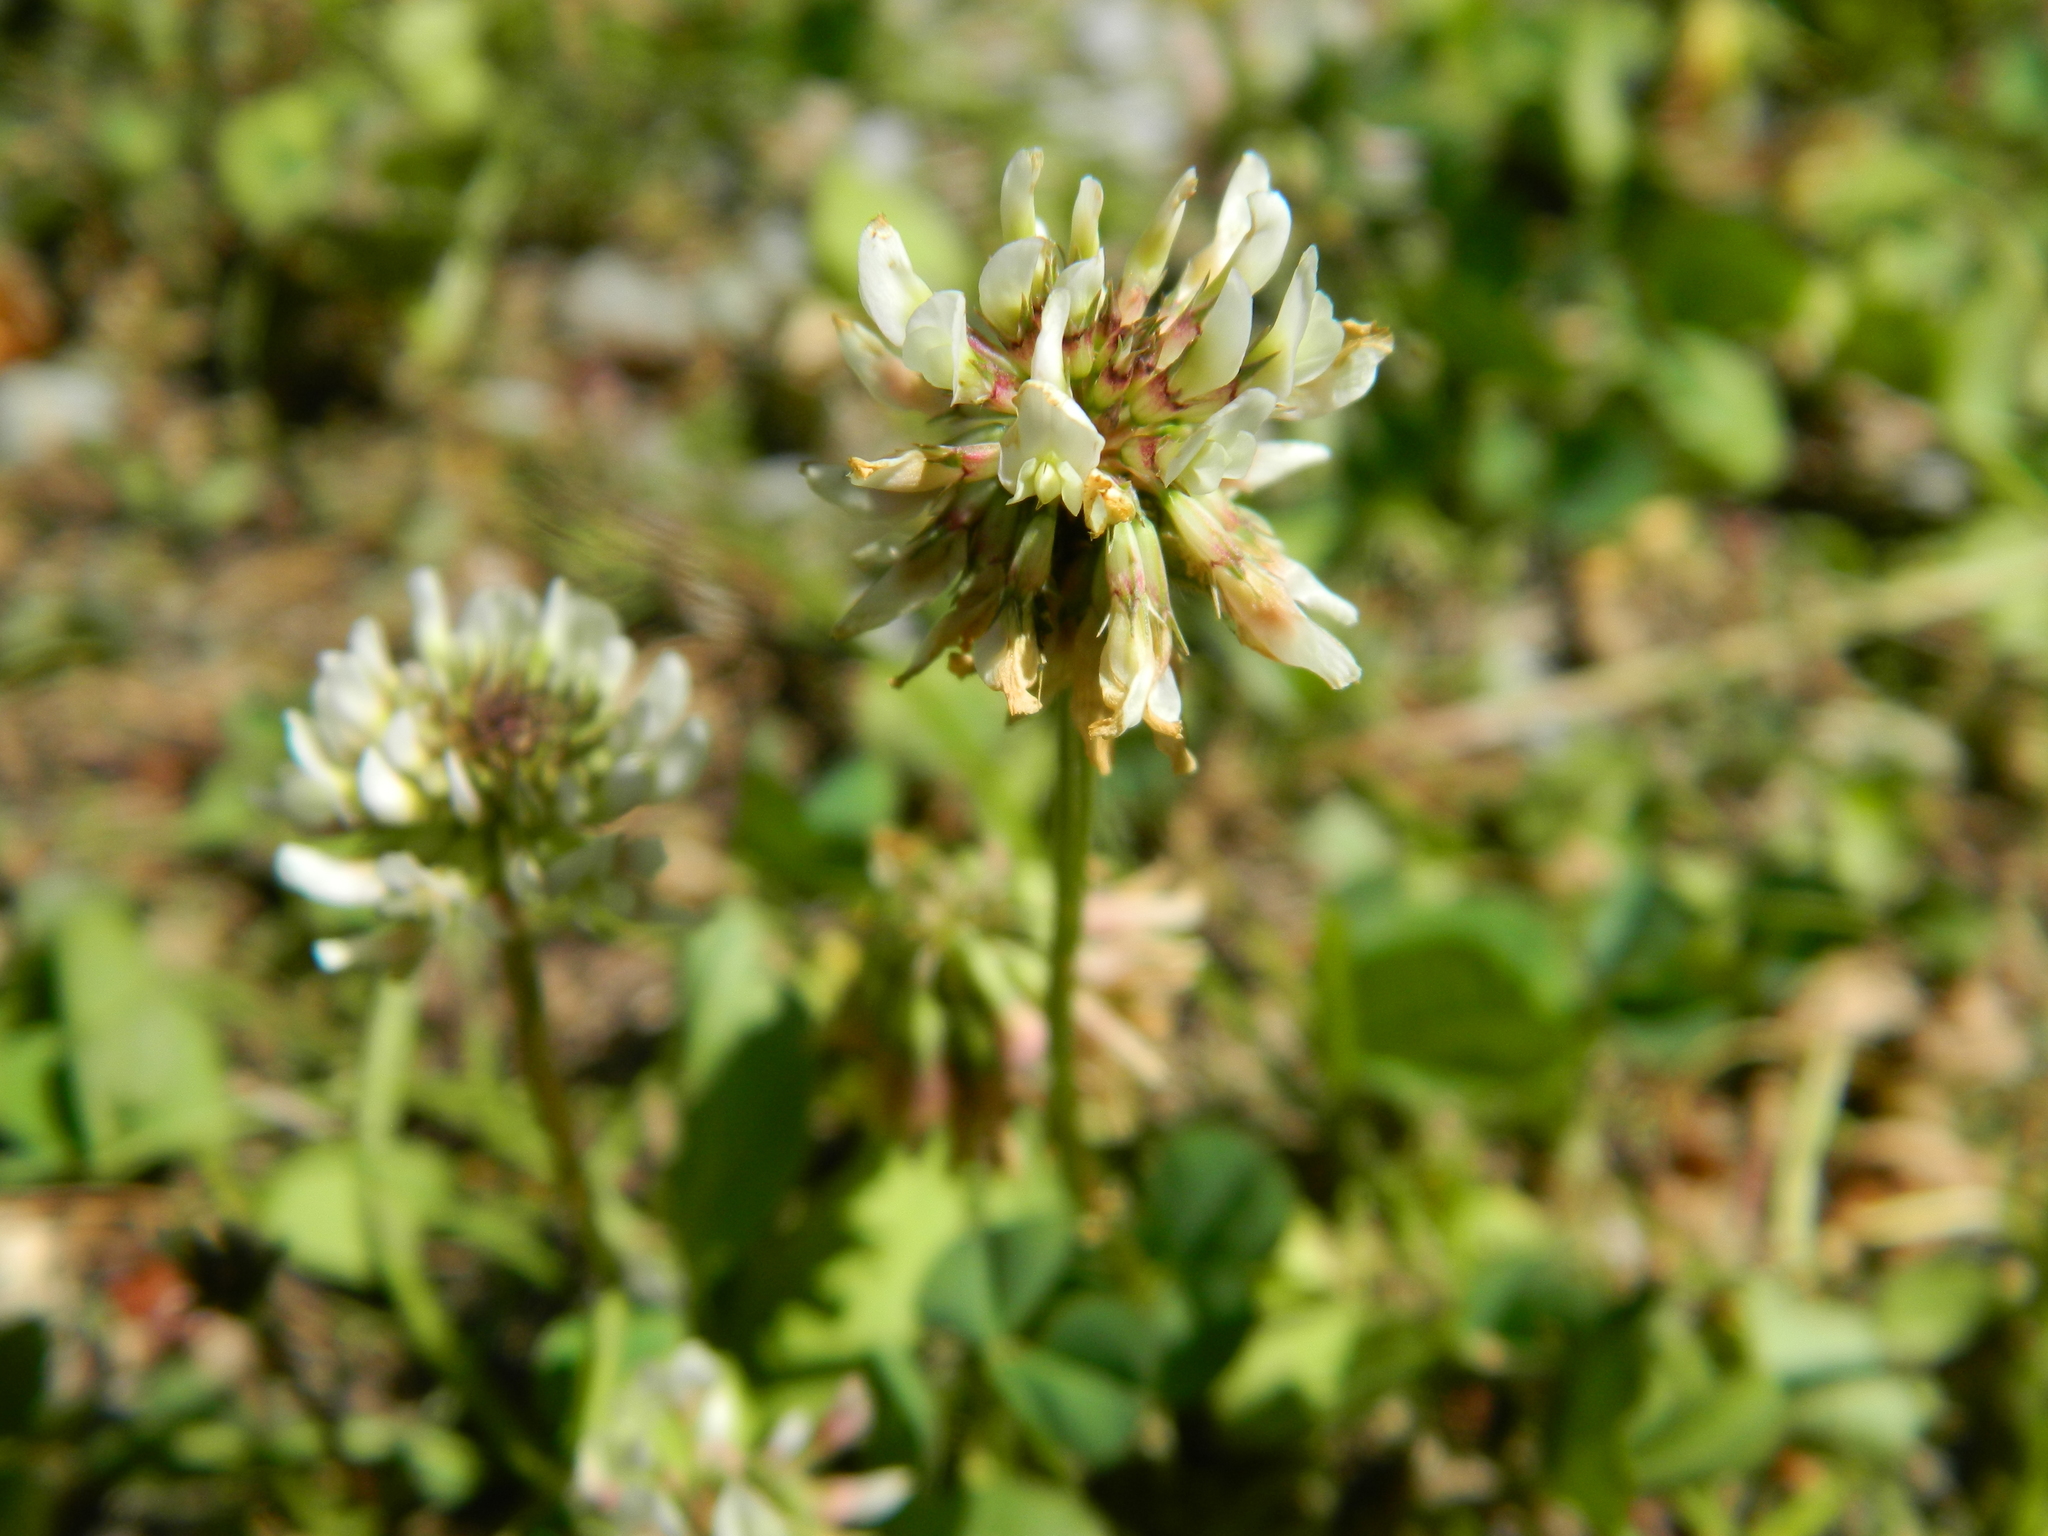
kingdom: Plantae
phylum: Tracheophyta
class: Magnoliopsida
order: Fabales
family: Fabaceae
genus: Trifolium
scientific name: Trifolium repens
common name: White clover
